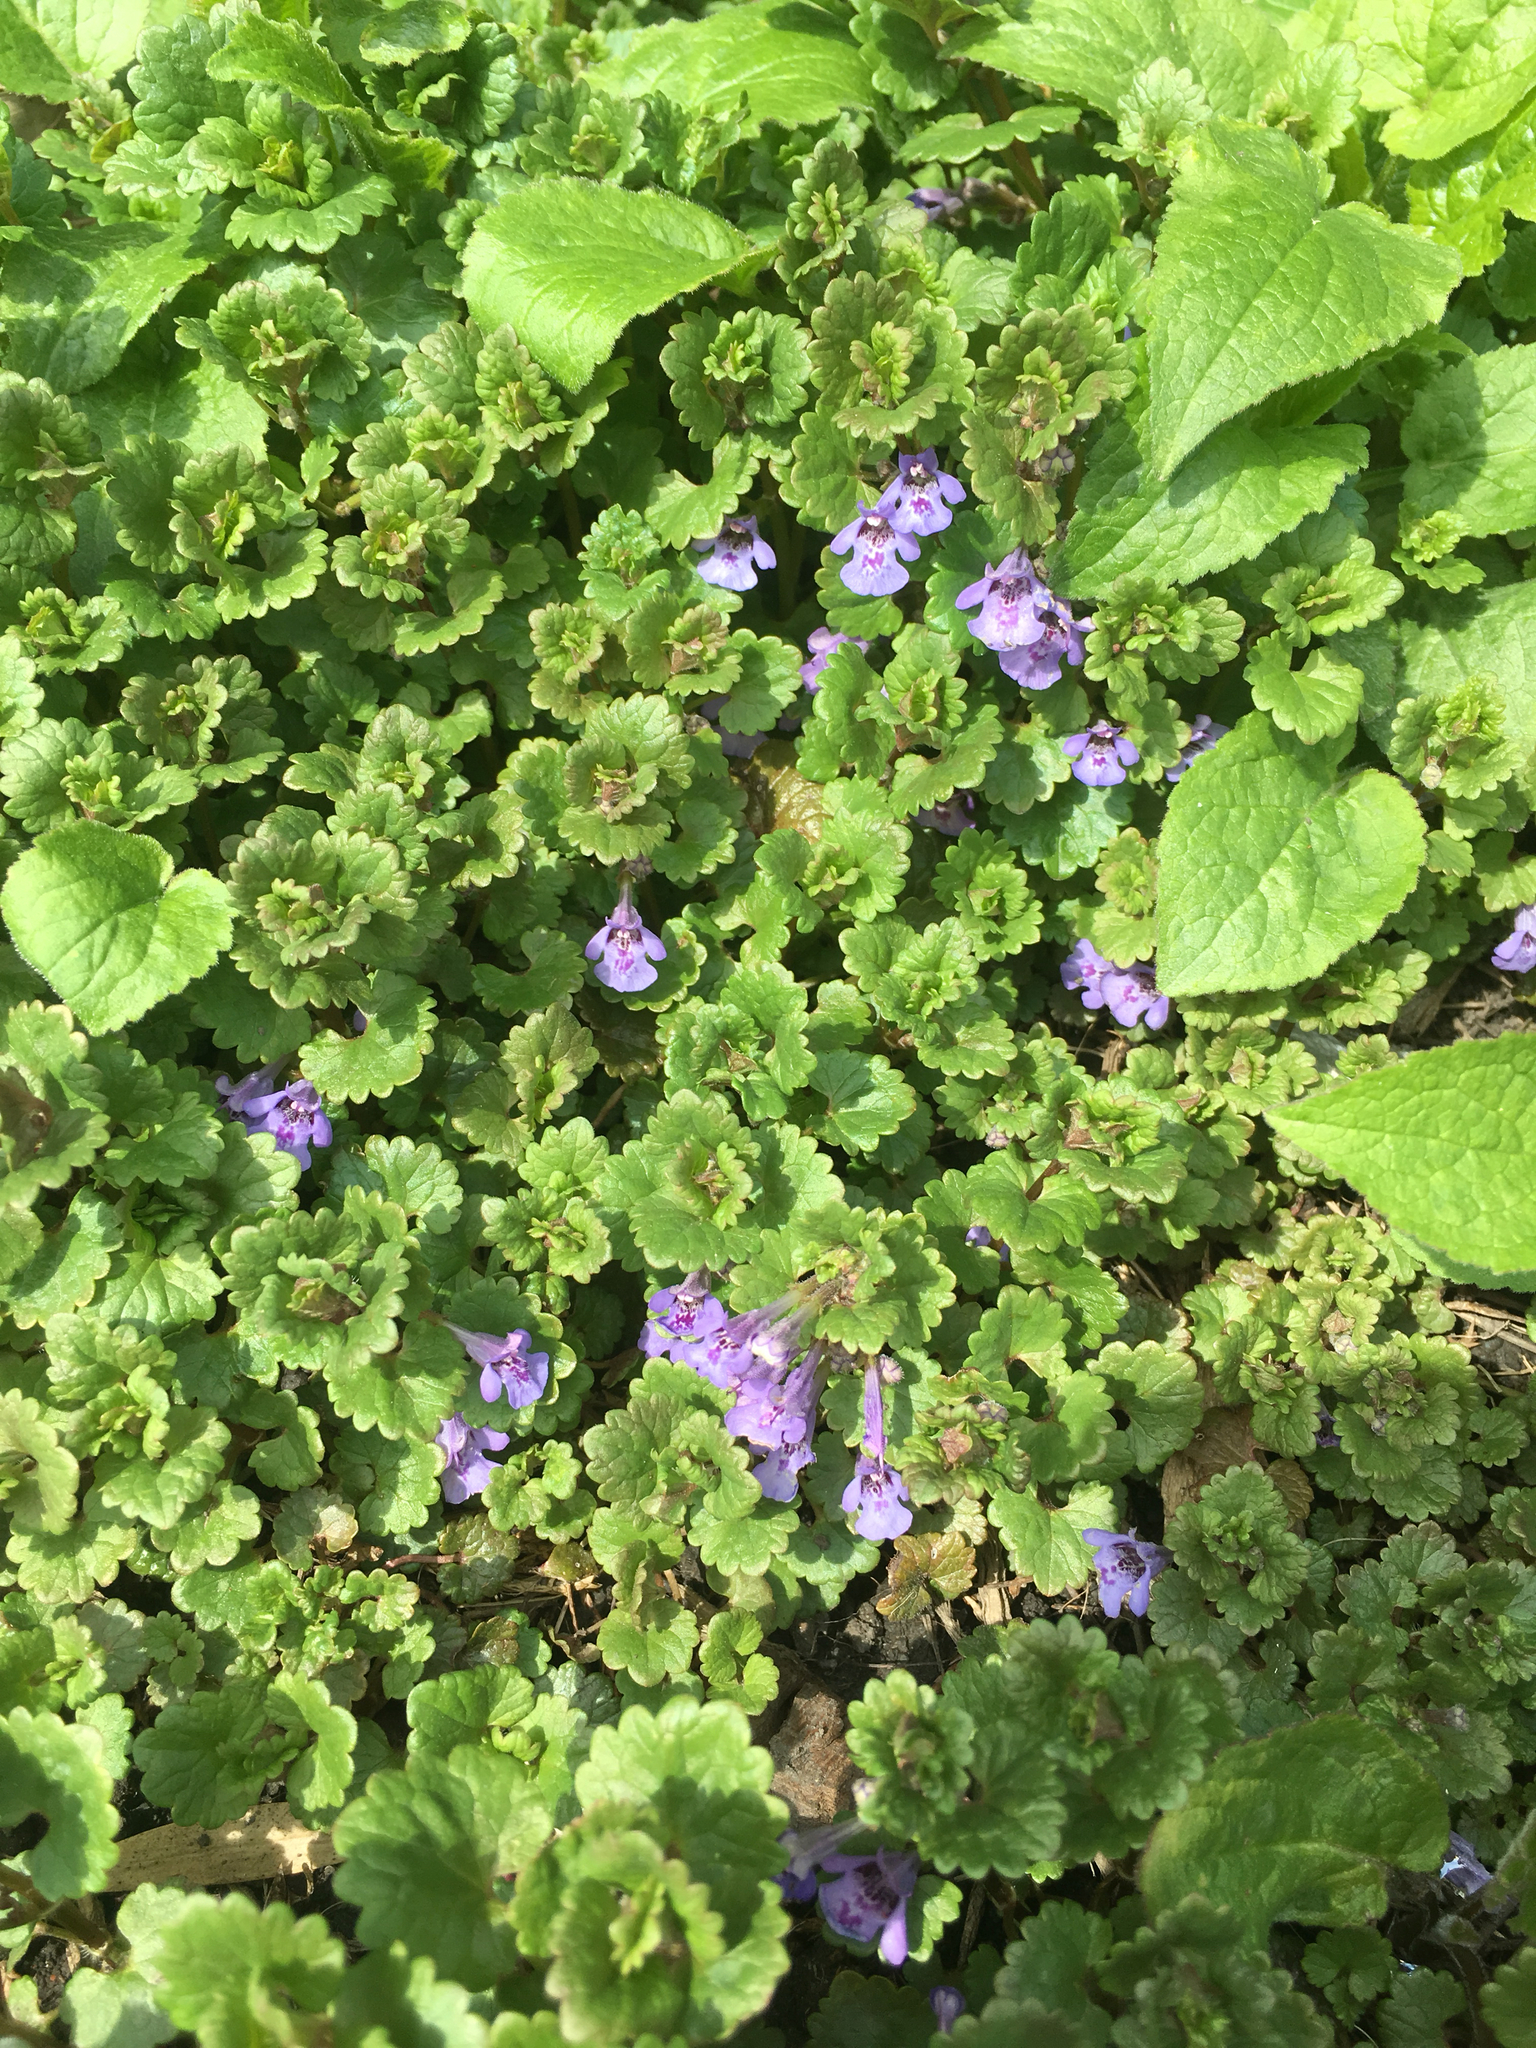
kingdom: Plantae
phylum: Tracheophyta
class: Magnoliopsida
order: Lamiales
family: Lamiaceae
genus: Glechoma
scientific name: Glechoma hederacea
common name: Ground ivy
